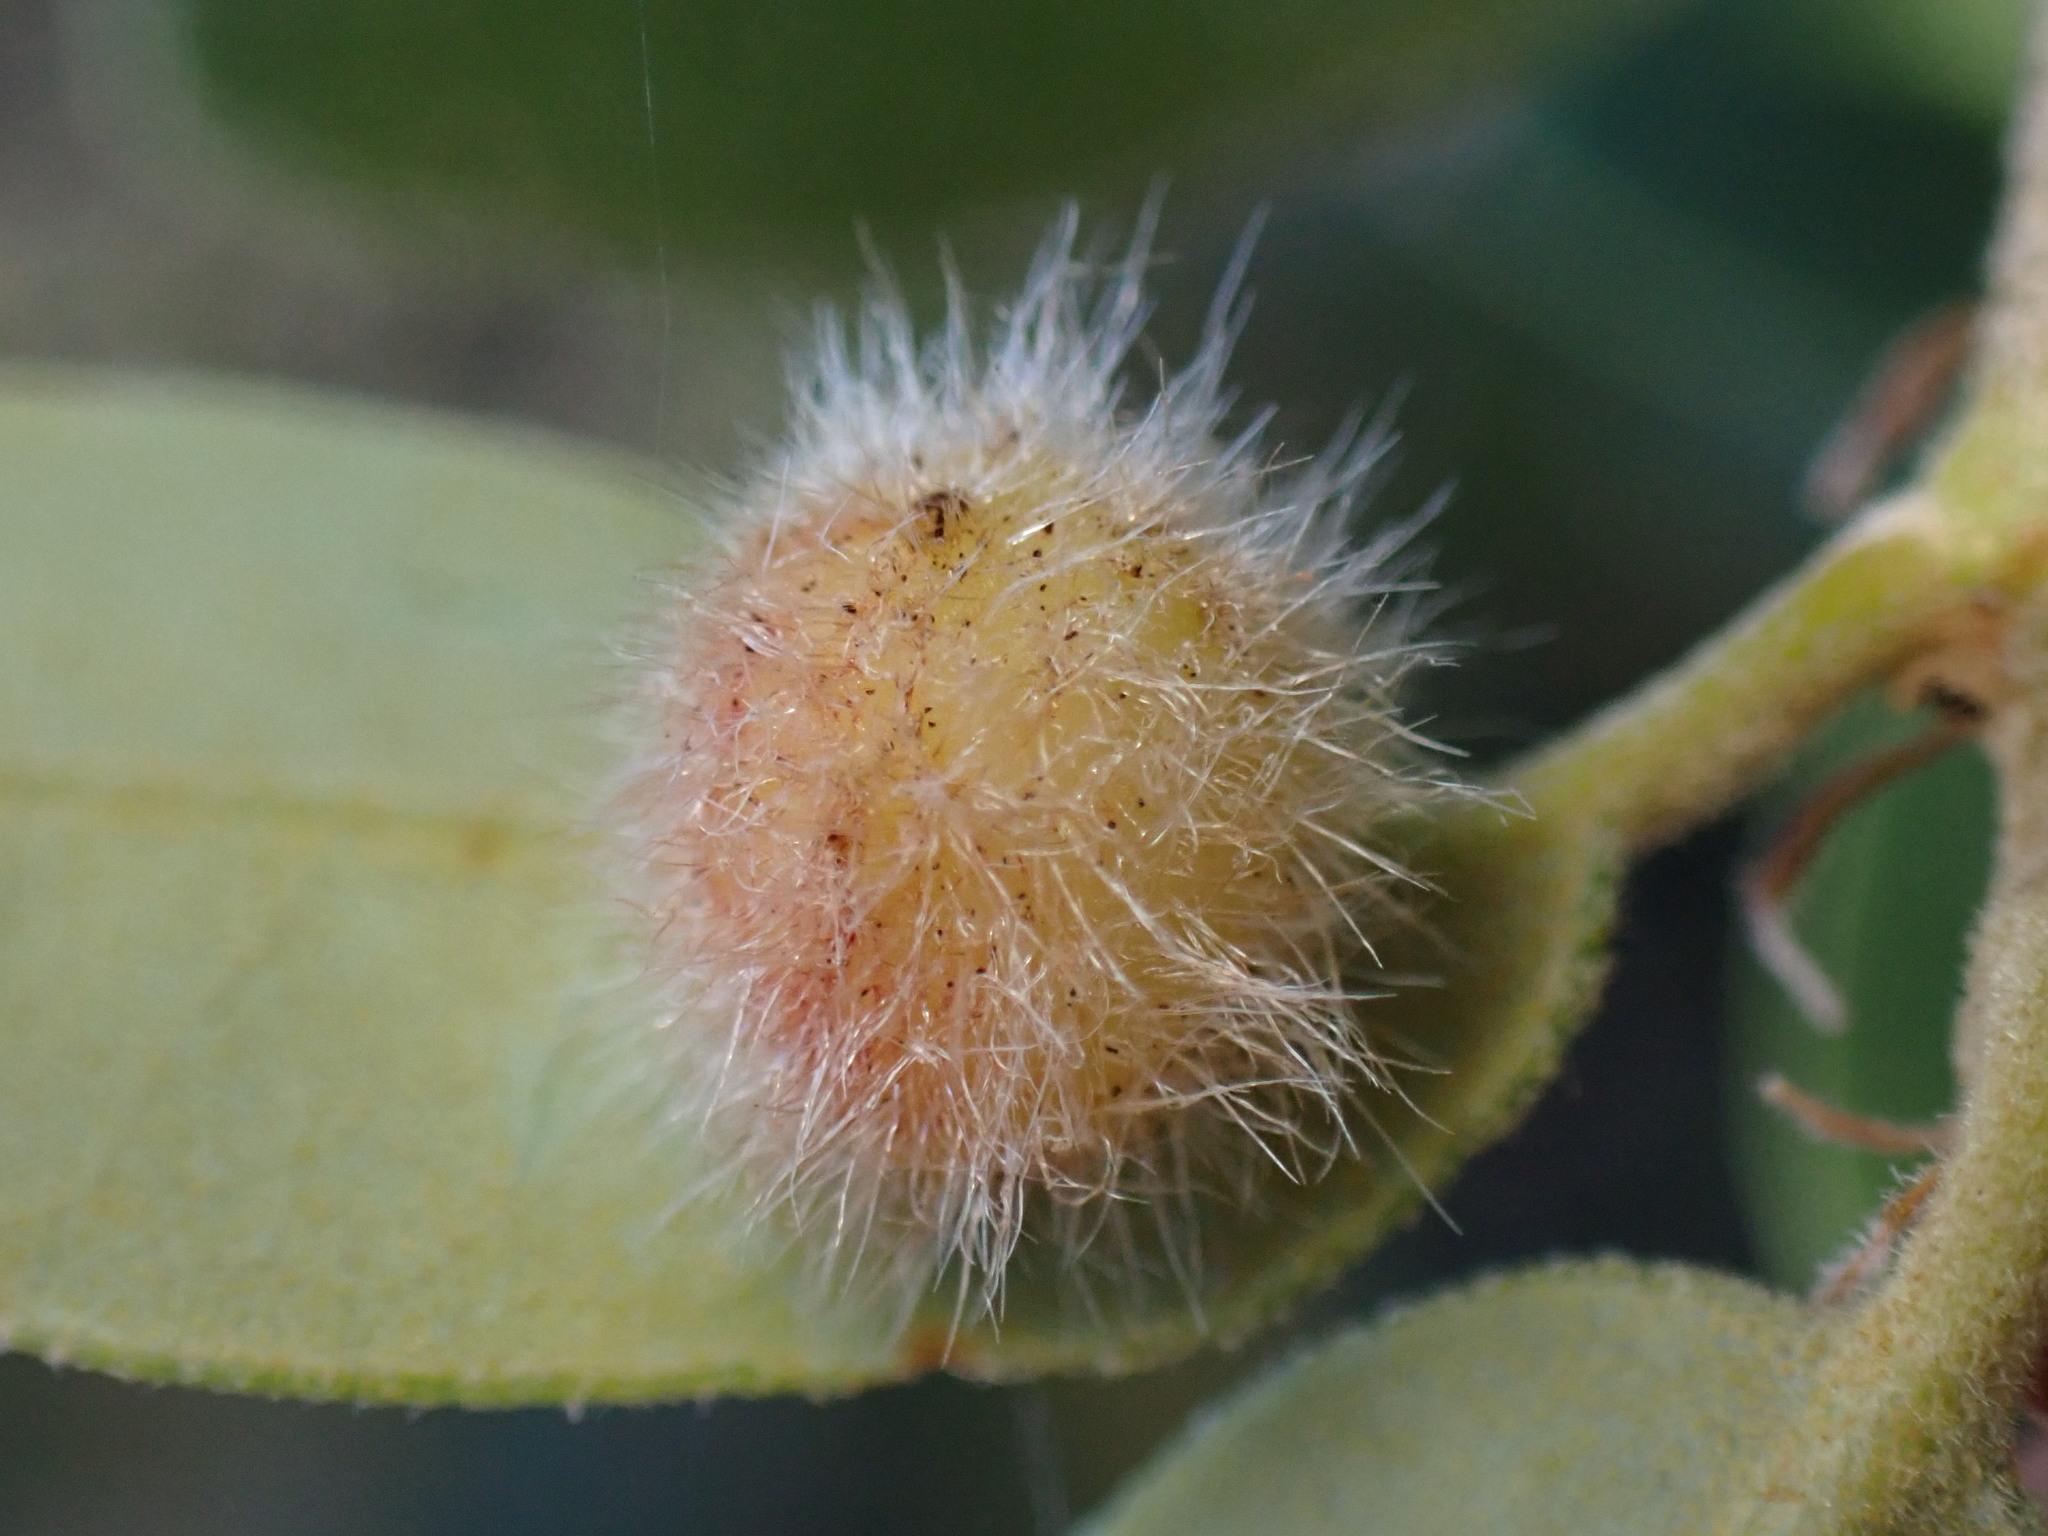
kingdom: Animalia
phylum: Arthropoda
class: Insecta
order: Hymenoptera
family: Cynipidae
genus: Disholandricus
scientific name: Disholandricus
